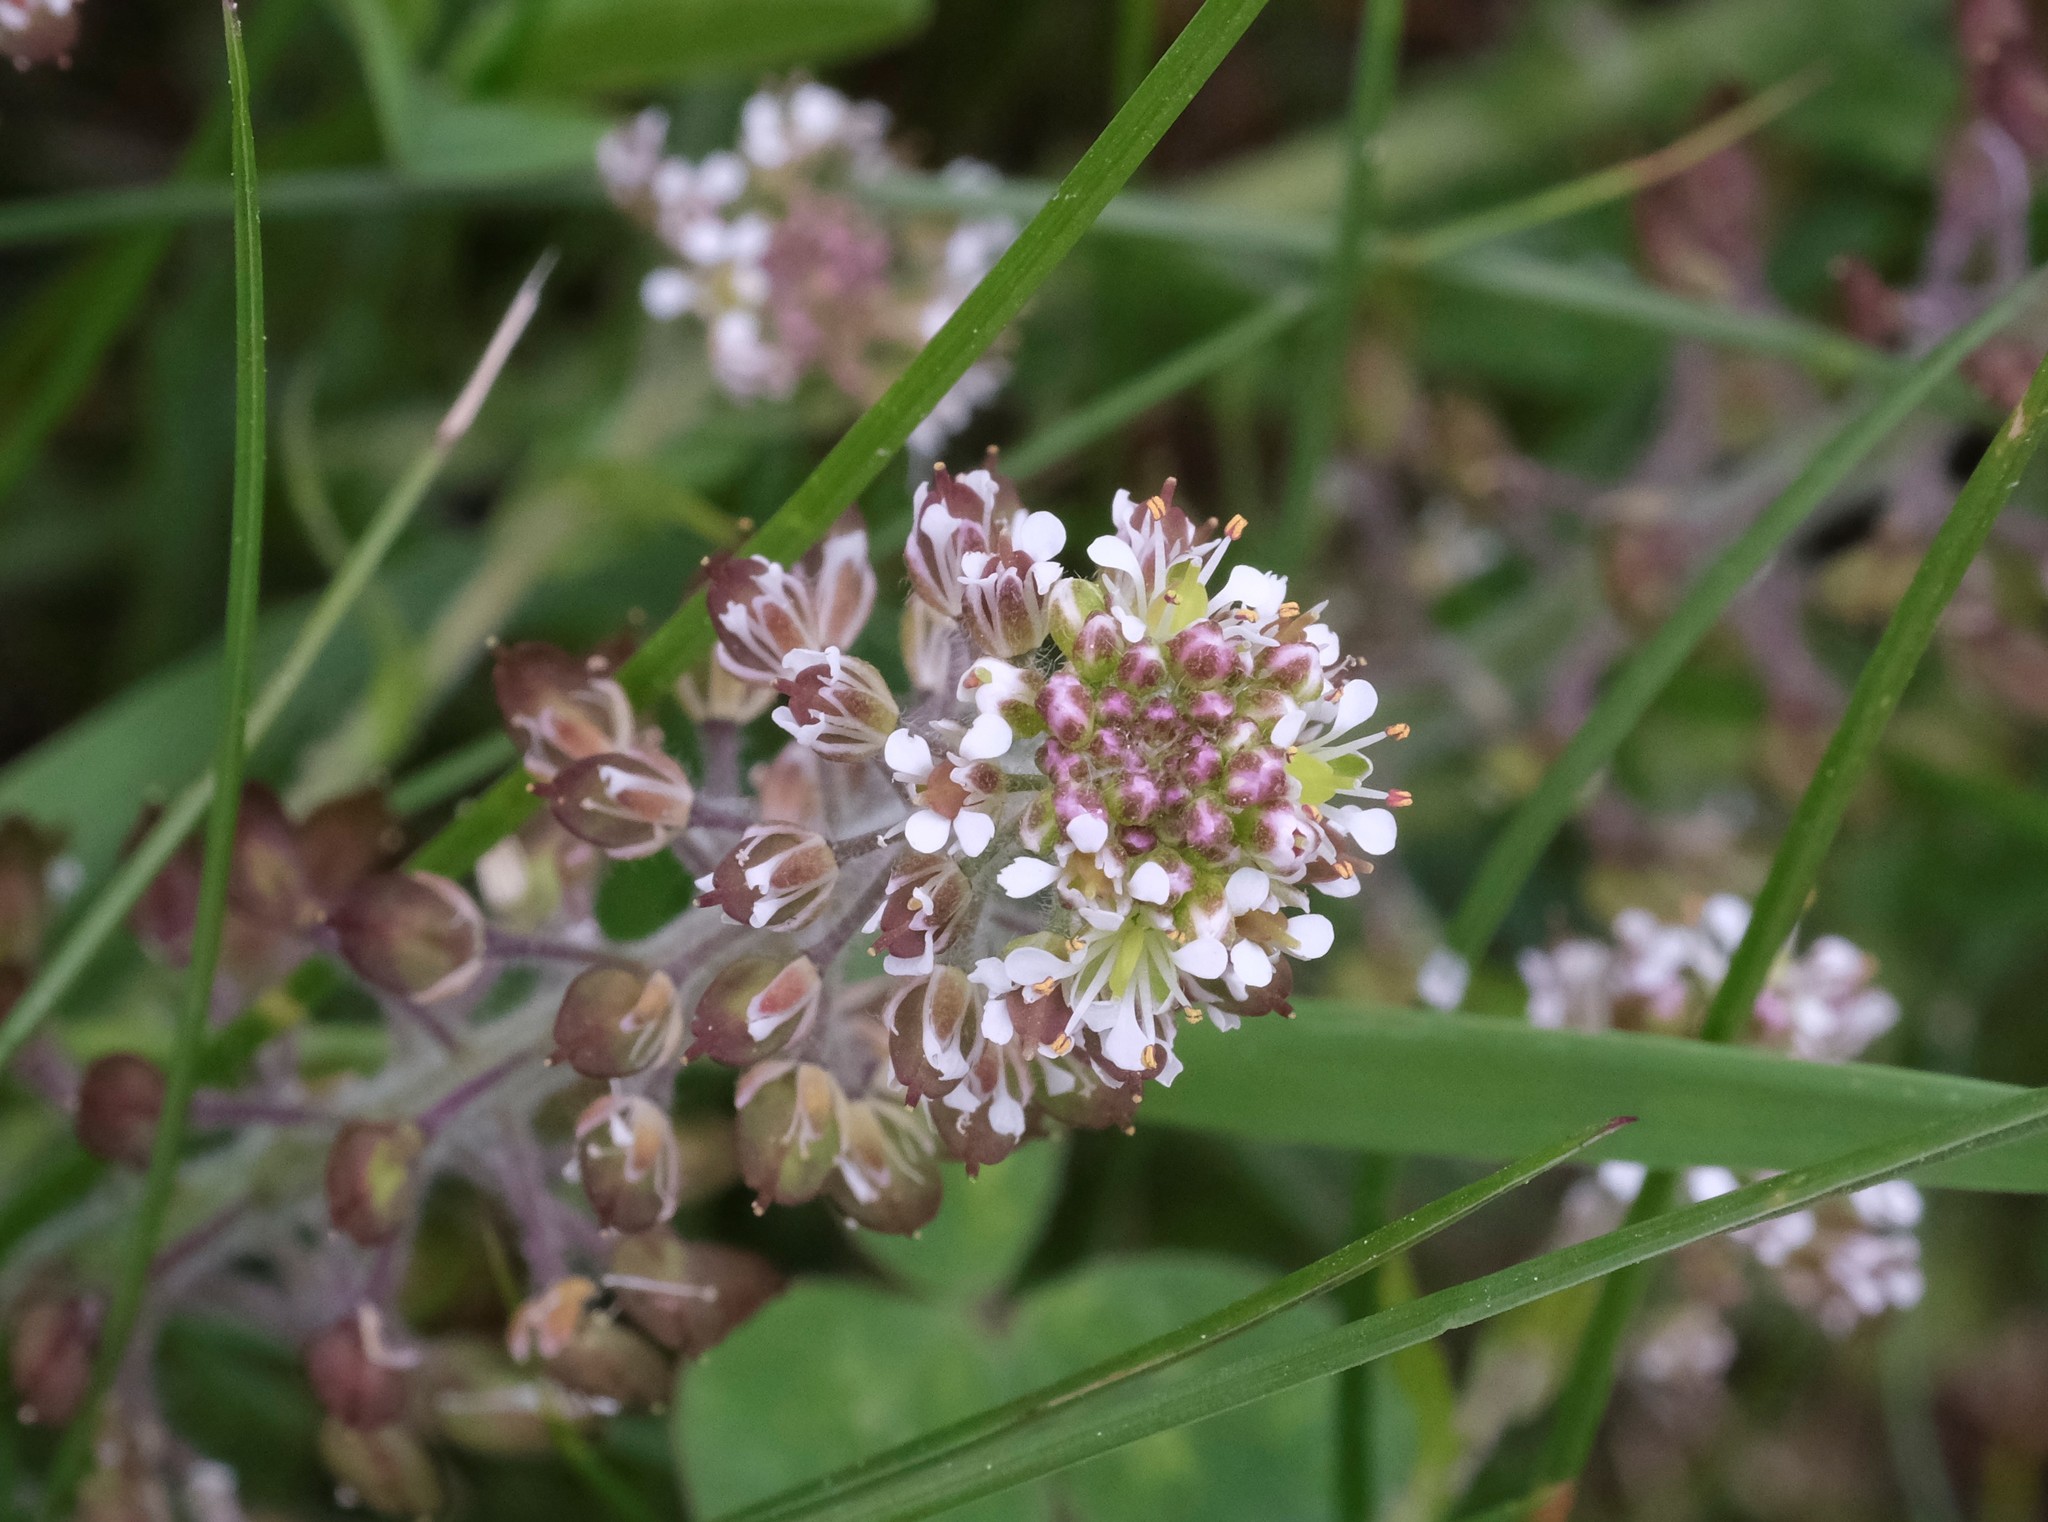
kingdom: Plantae
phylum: Tracheophyta
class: Magnoliopsida
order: Brassicales
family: Brassicaceae
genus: Lepidium
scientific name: Lepidium campestre
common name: Field pepperwort
